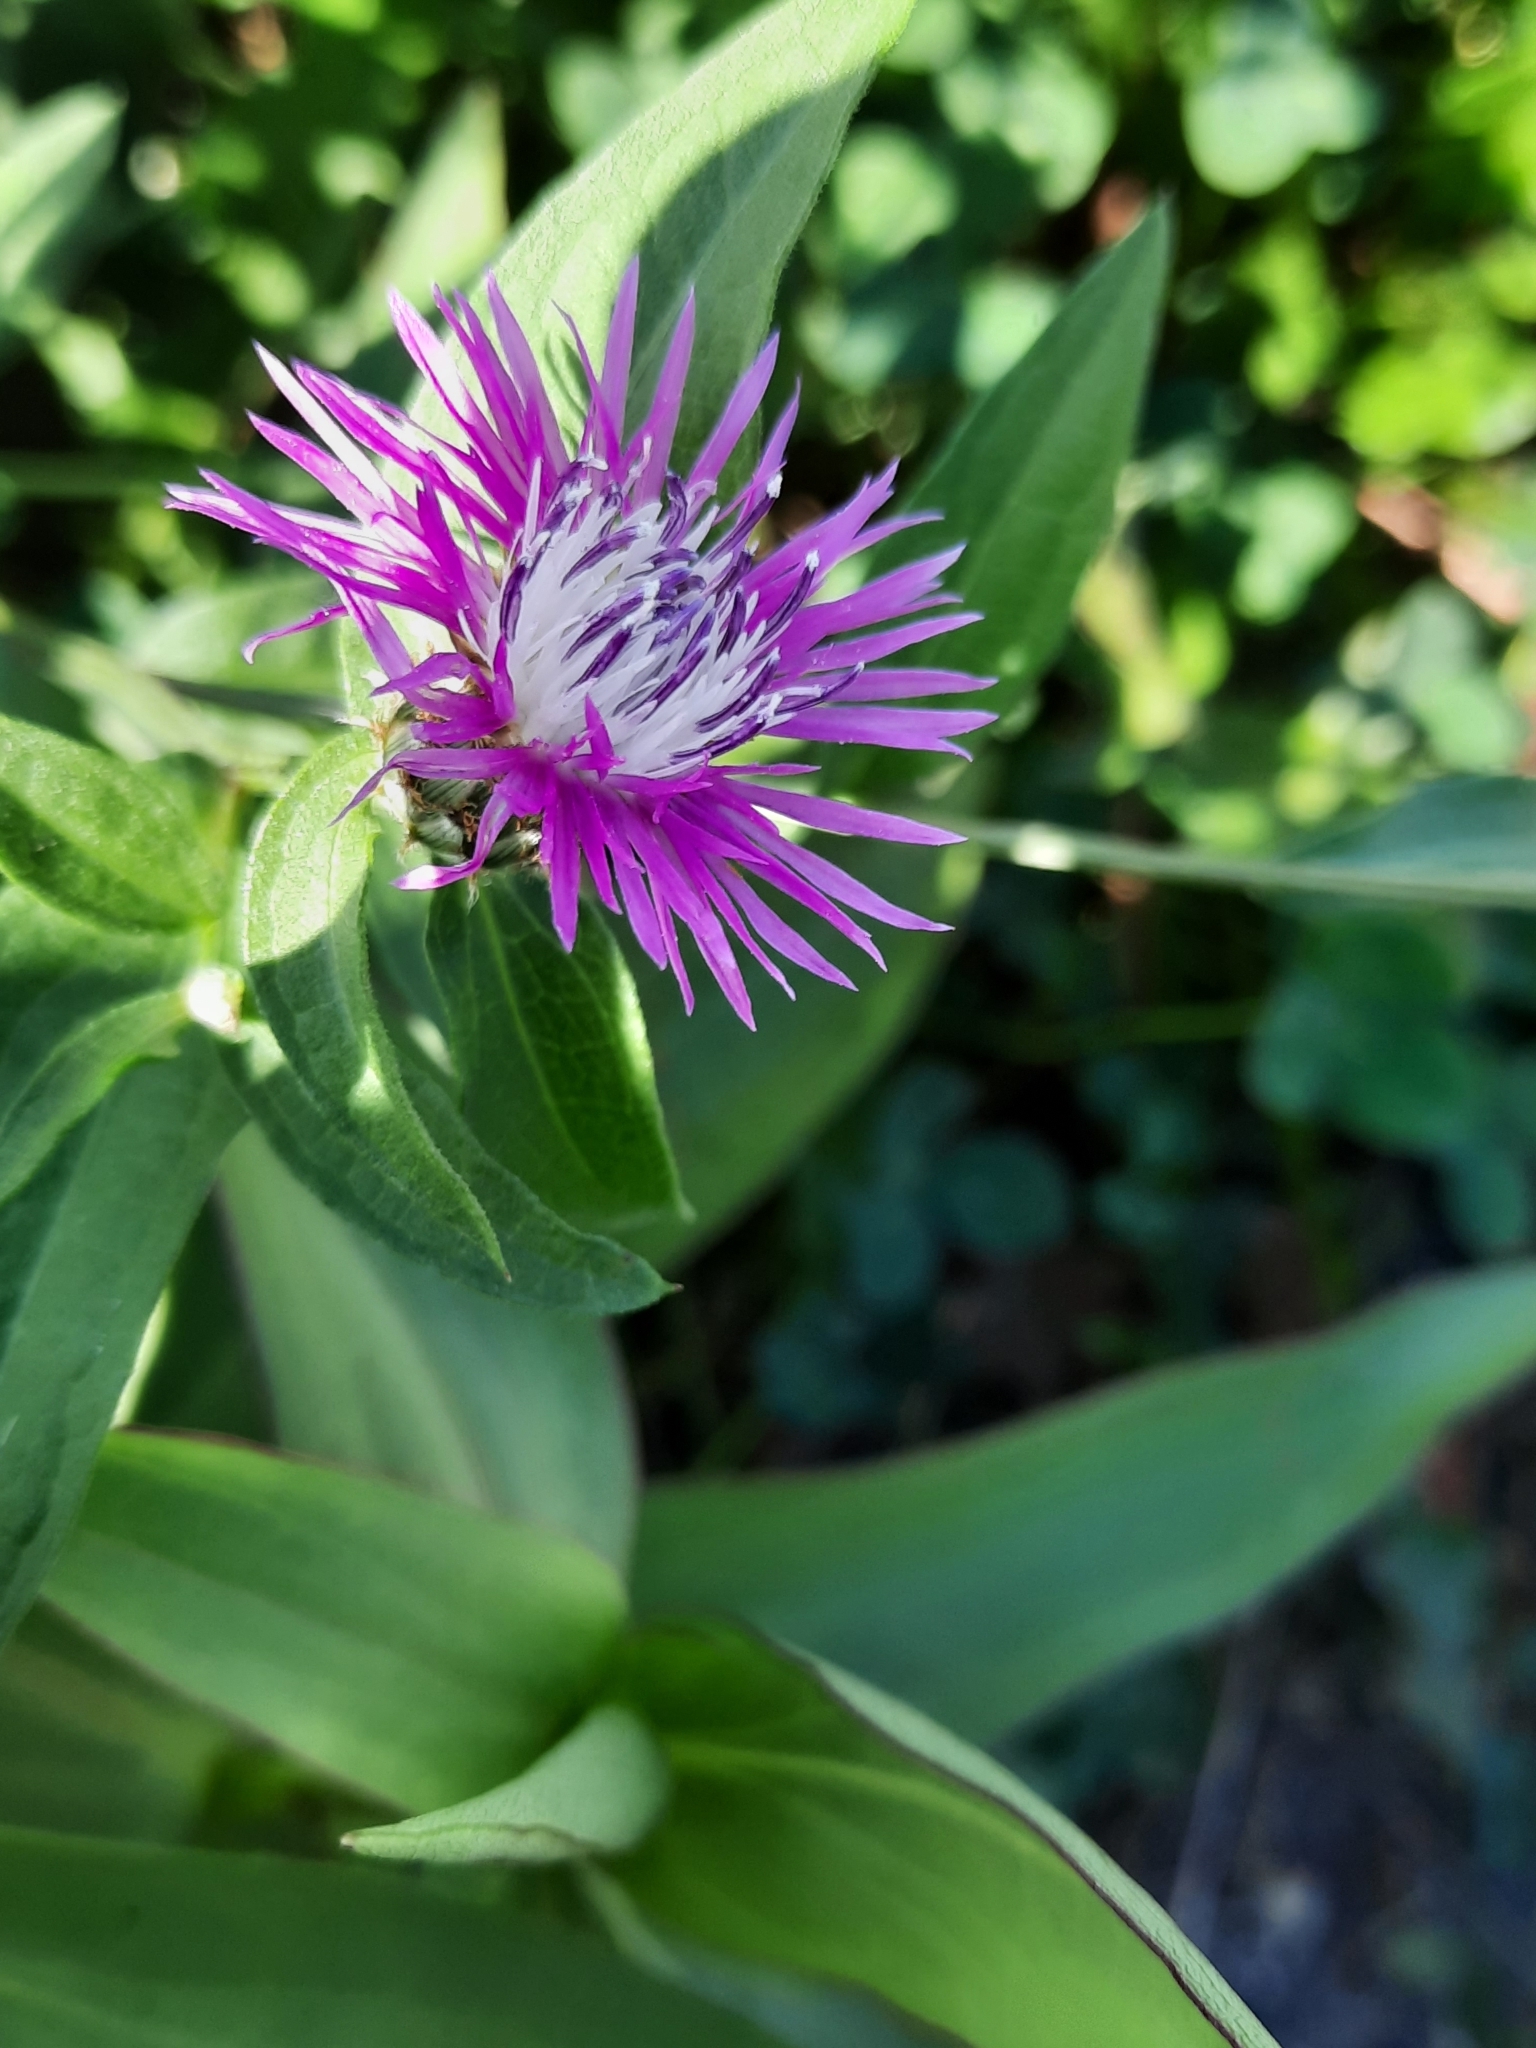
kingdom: Plantae
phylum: Tracheophyta
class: Magnoliopsida
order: Asterales
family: Asteraceae
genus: Centaurea
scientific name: Centaurea nigrescens
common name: Tyrol knapweed
